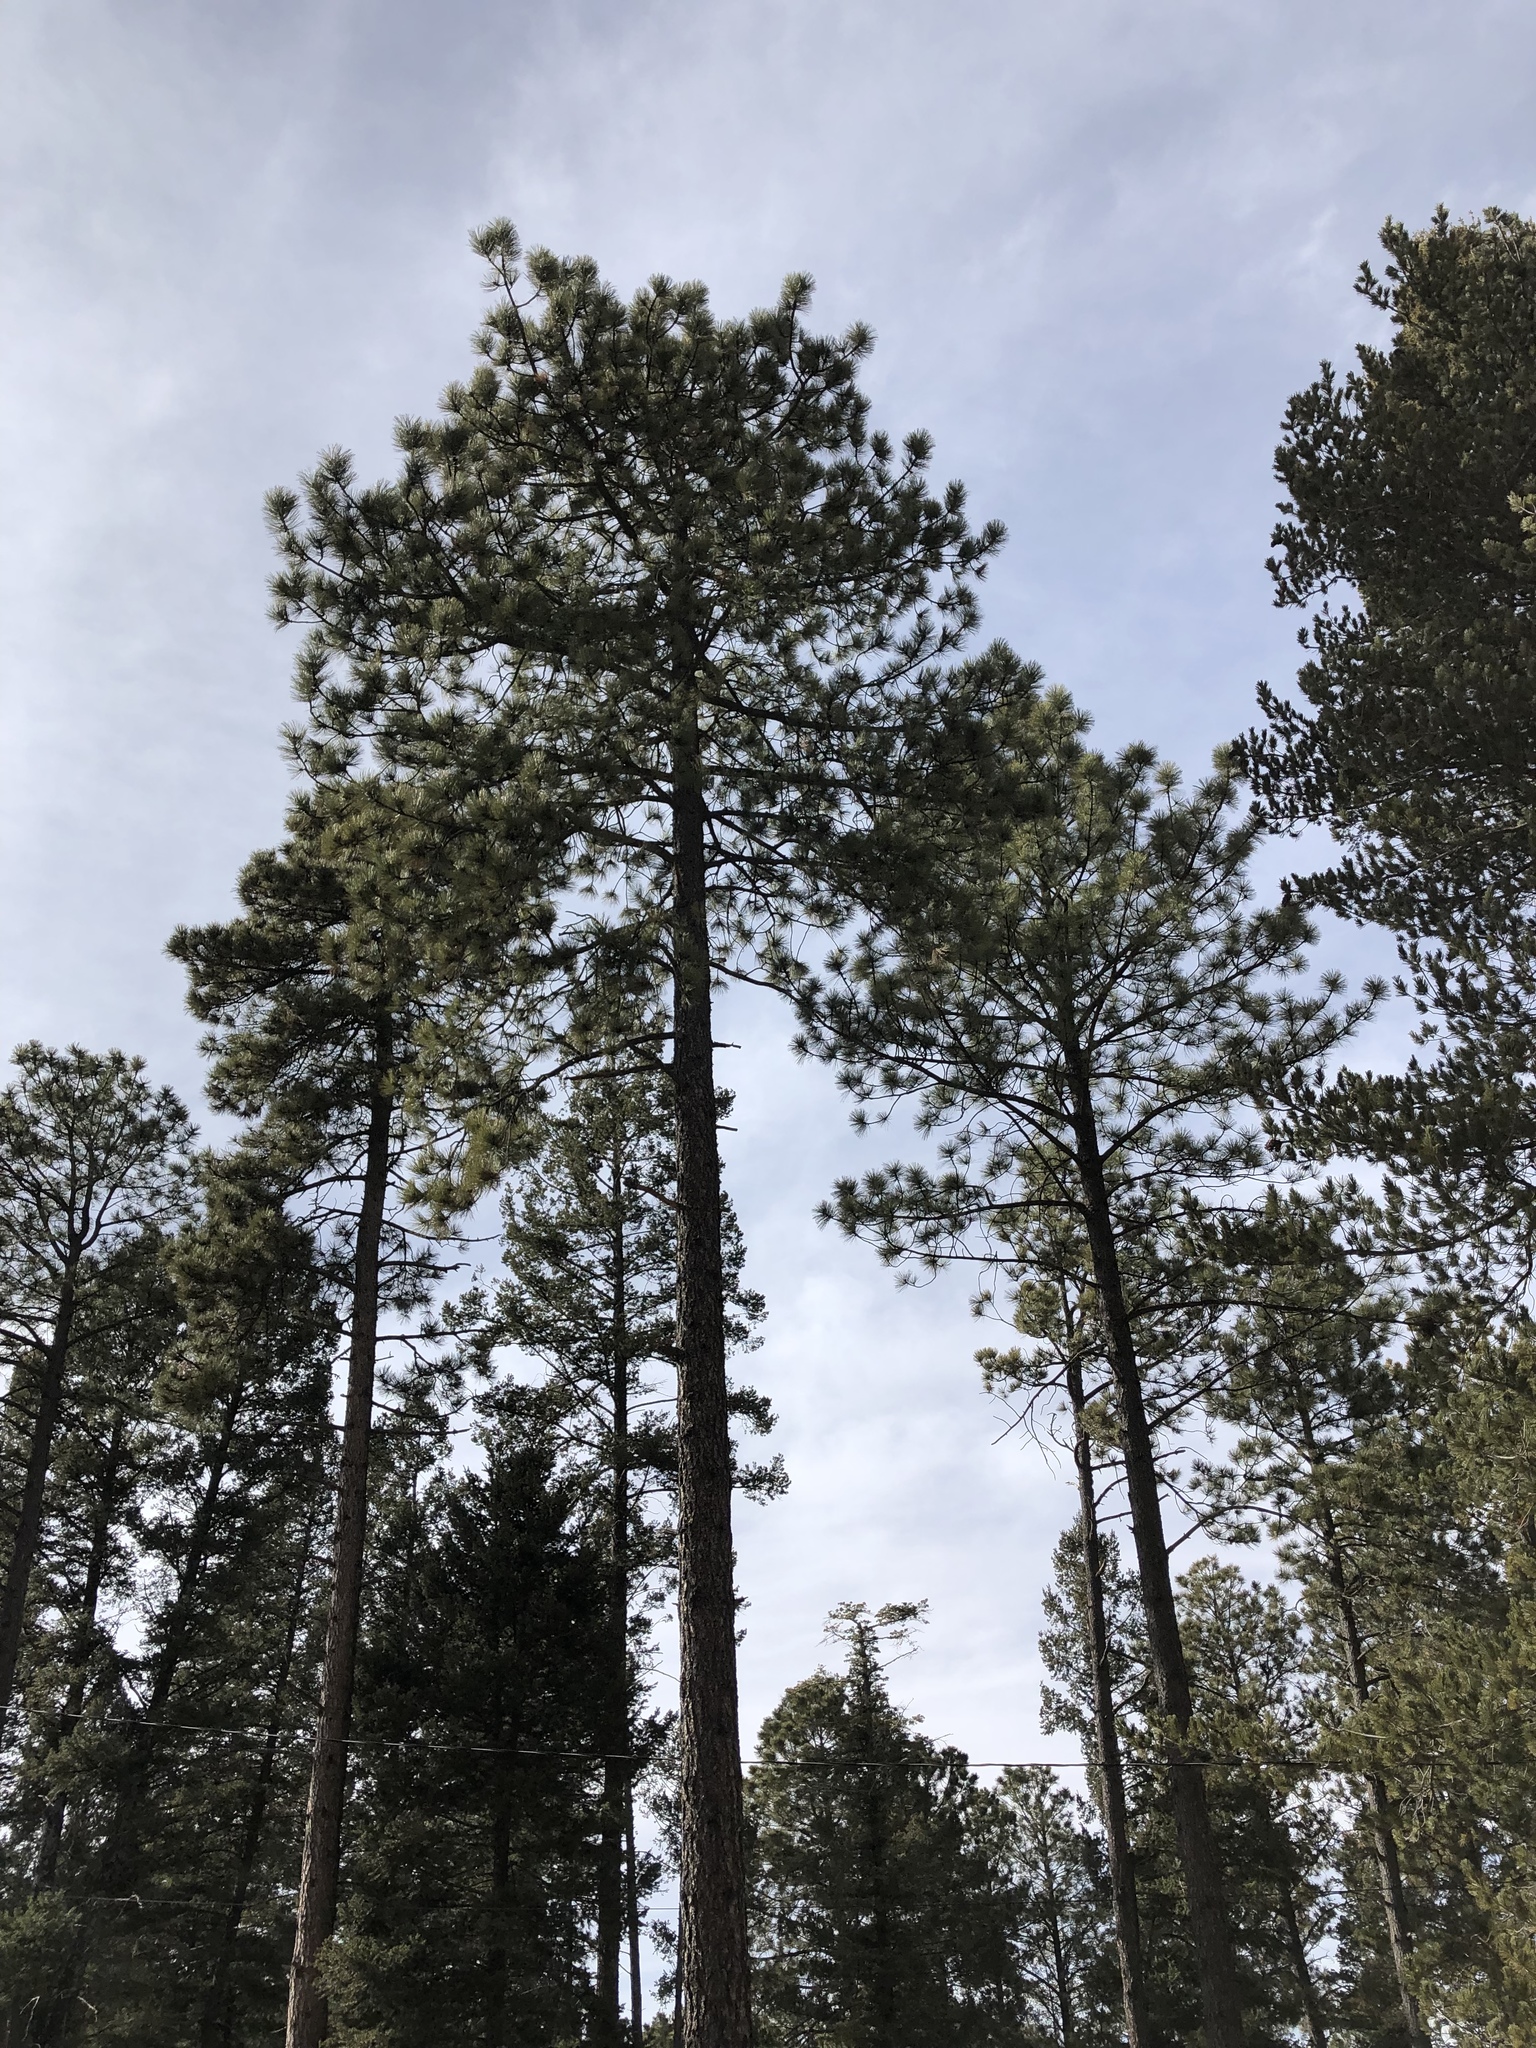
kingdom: Plantae
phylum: Tracheophyta
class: Pinopsida
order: Pinales
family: Pinaceae
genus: Pinus
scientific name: Pinus ponderosa
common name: Western yellow-pine
